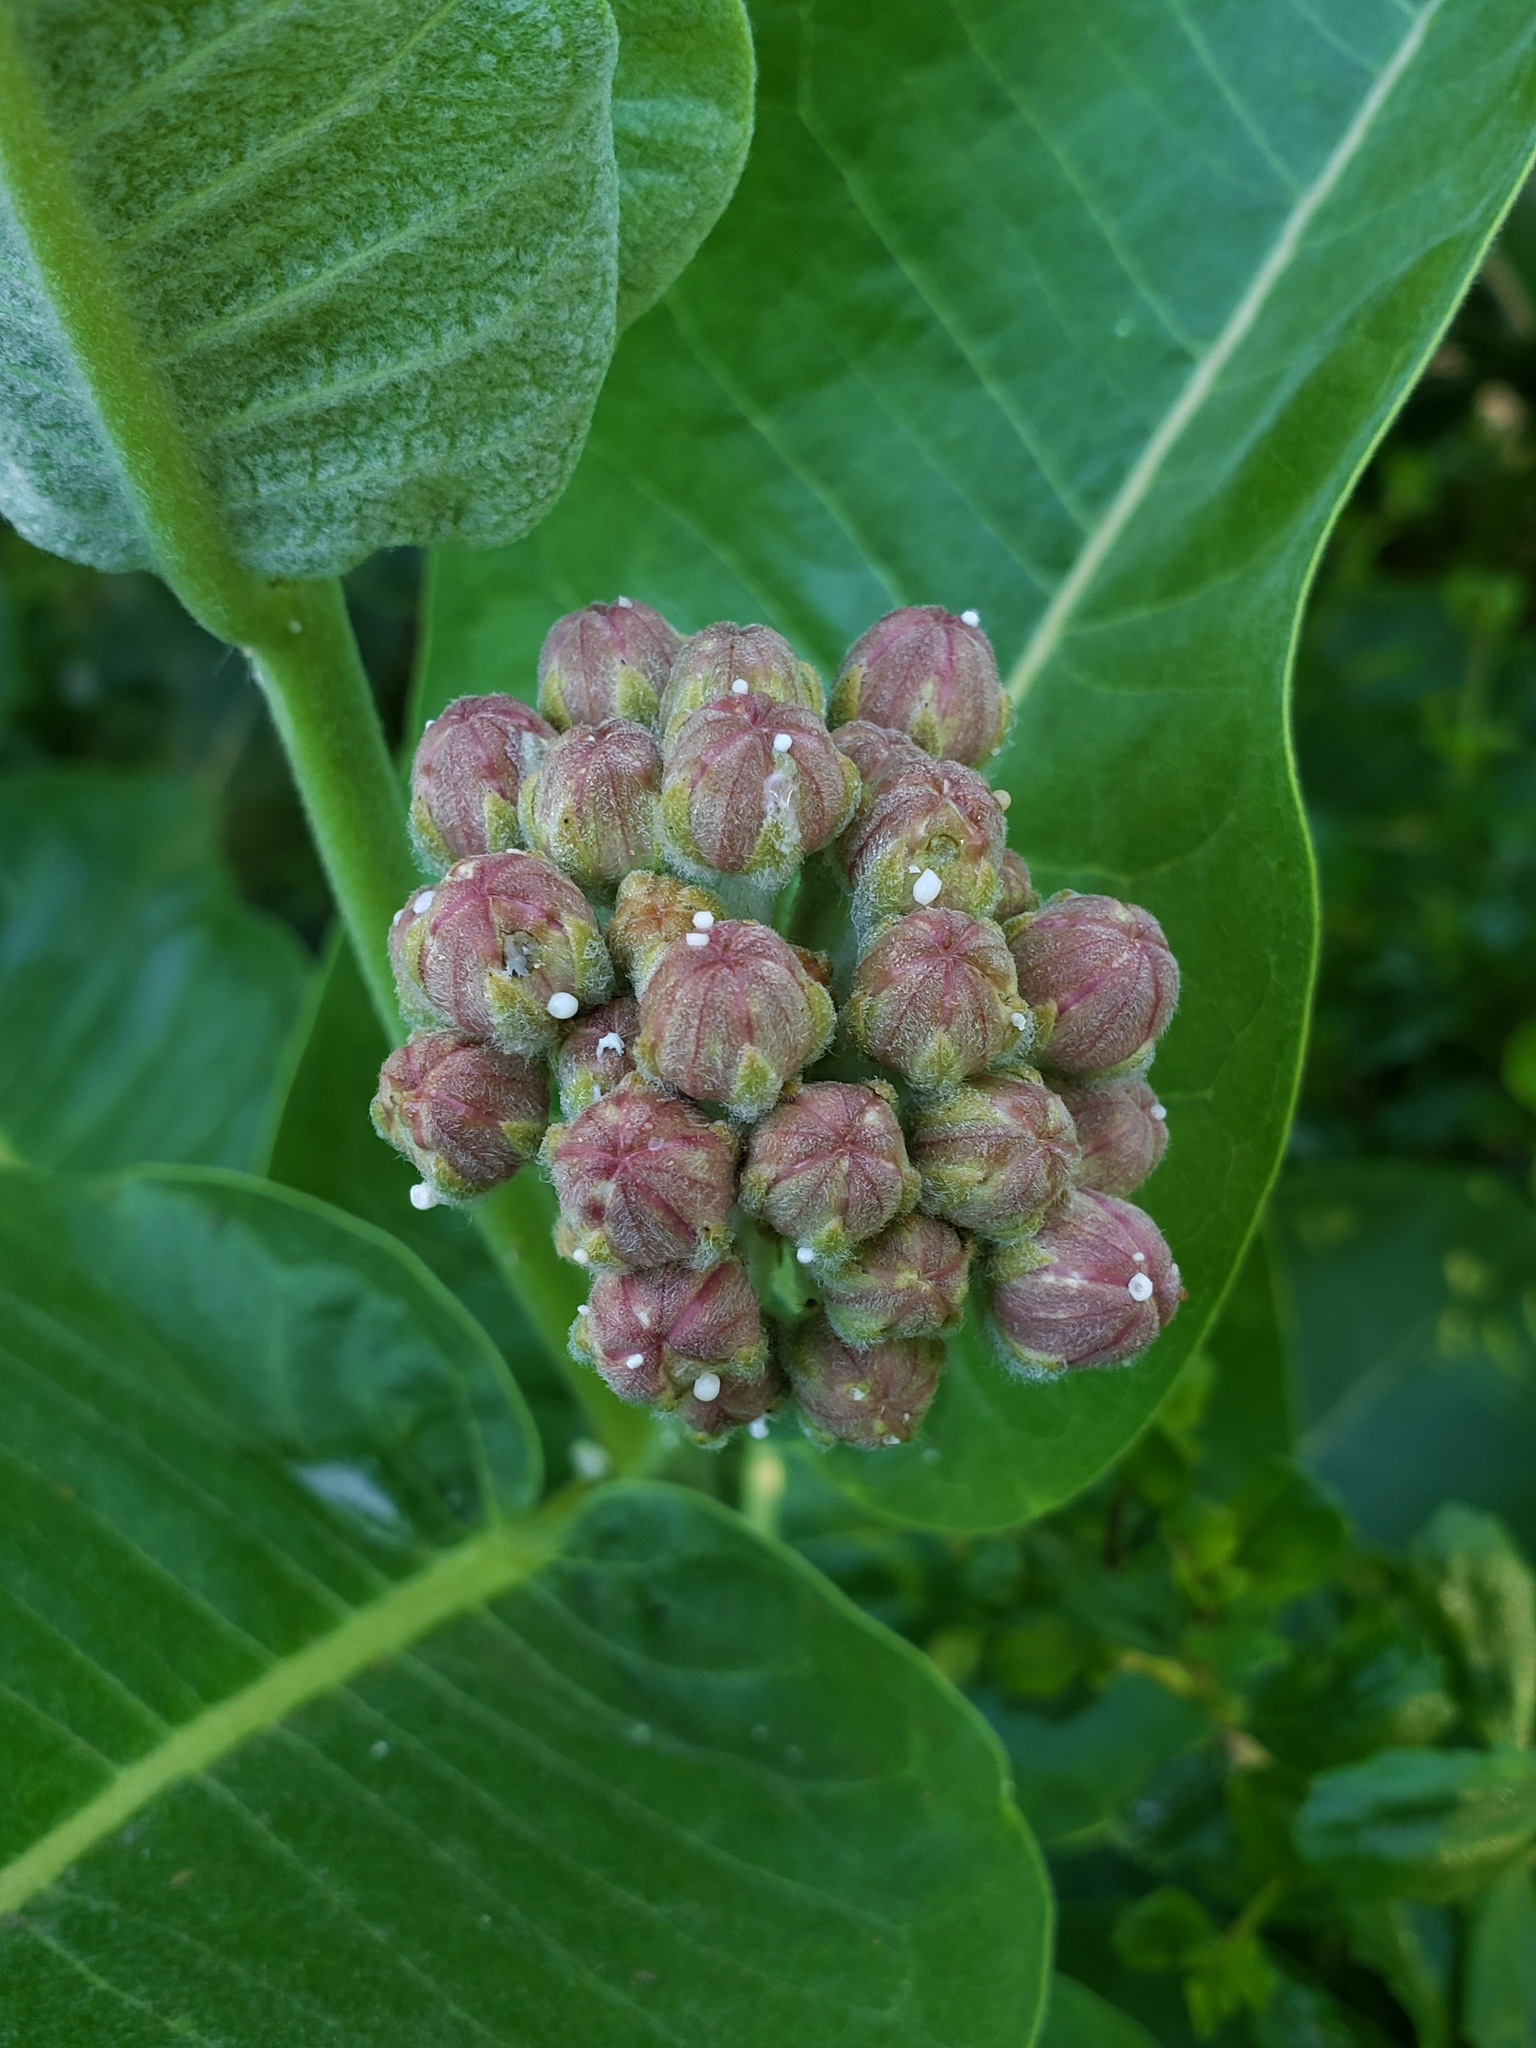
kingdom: Plantae
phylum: Tracheophyta
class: Magnoliopsida
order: Gentianales
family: Apocynaceae
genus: Asclepias
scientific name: Asclepias speciosa
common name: Showy milkweed
